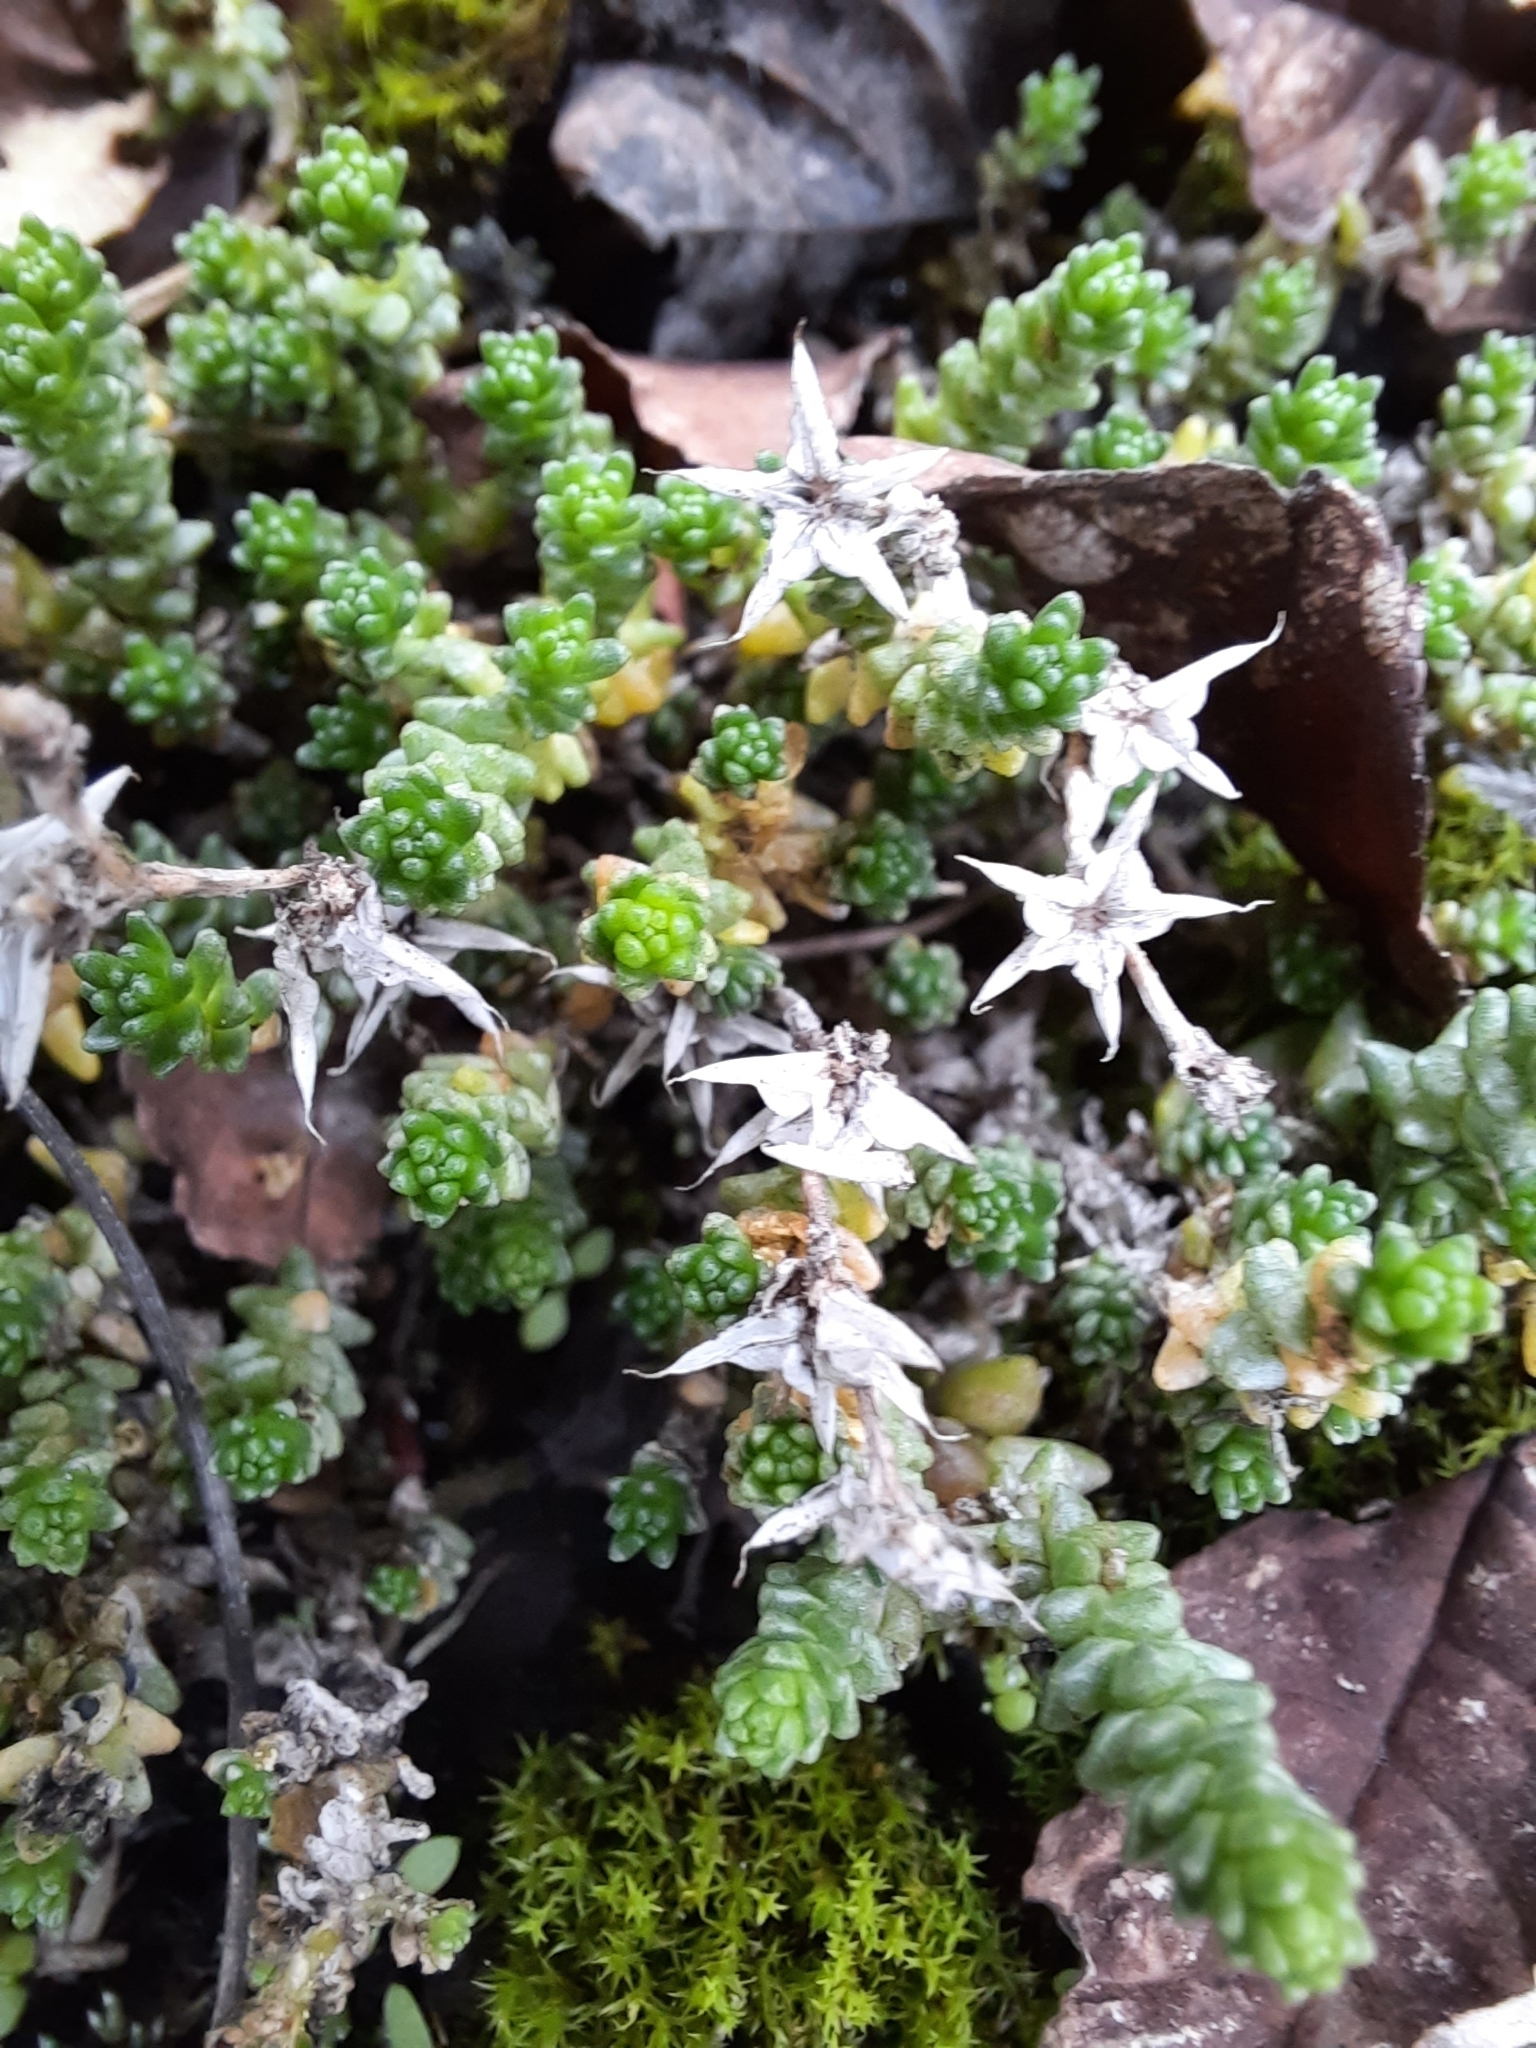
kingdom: Plantae
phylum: Tracheophyta
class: Magnoliopsida
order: Saxifragales
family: Crassulaceae
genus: Sedum
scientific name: Sedum acre
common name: Biting stonecrop
